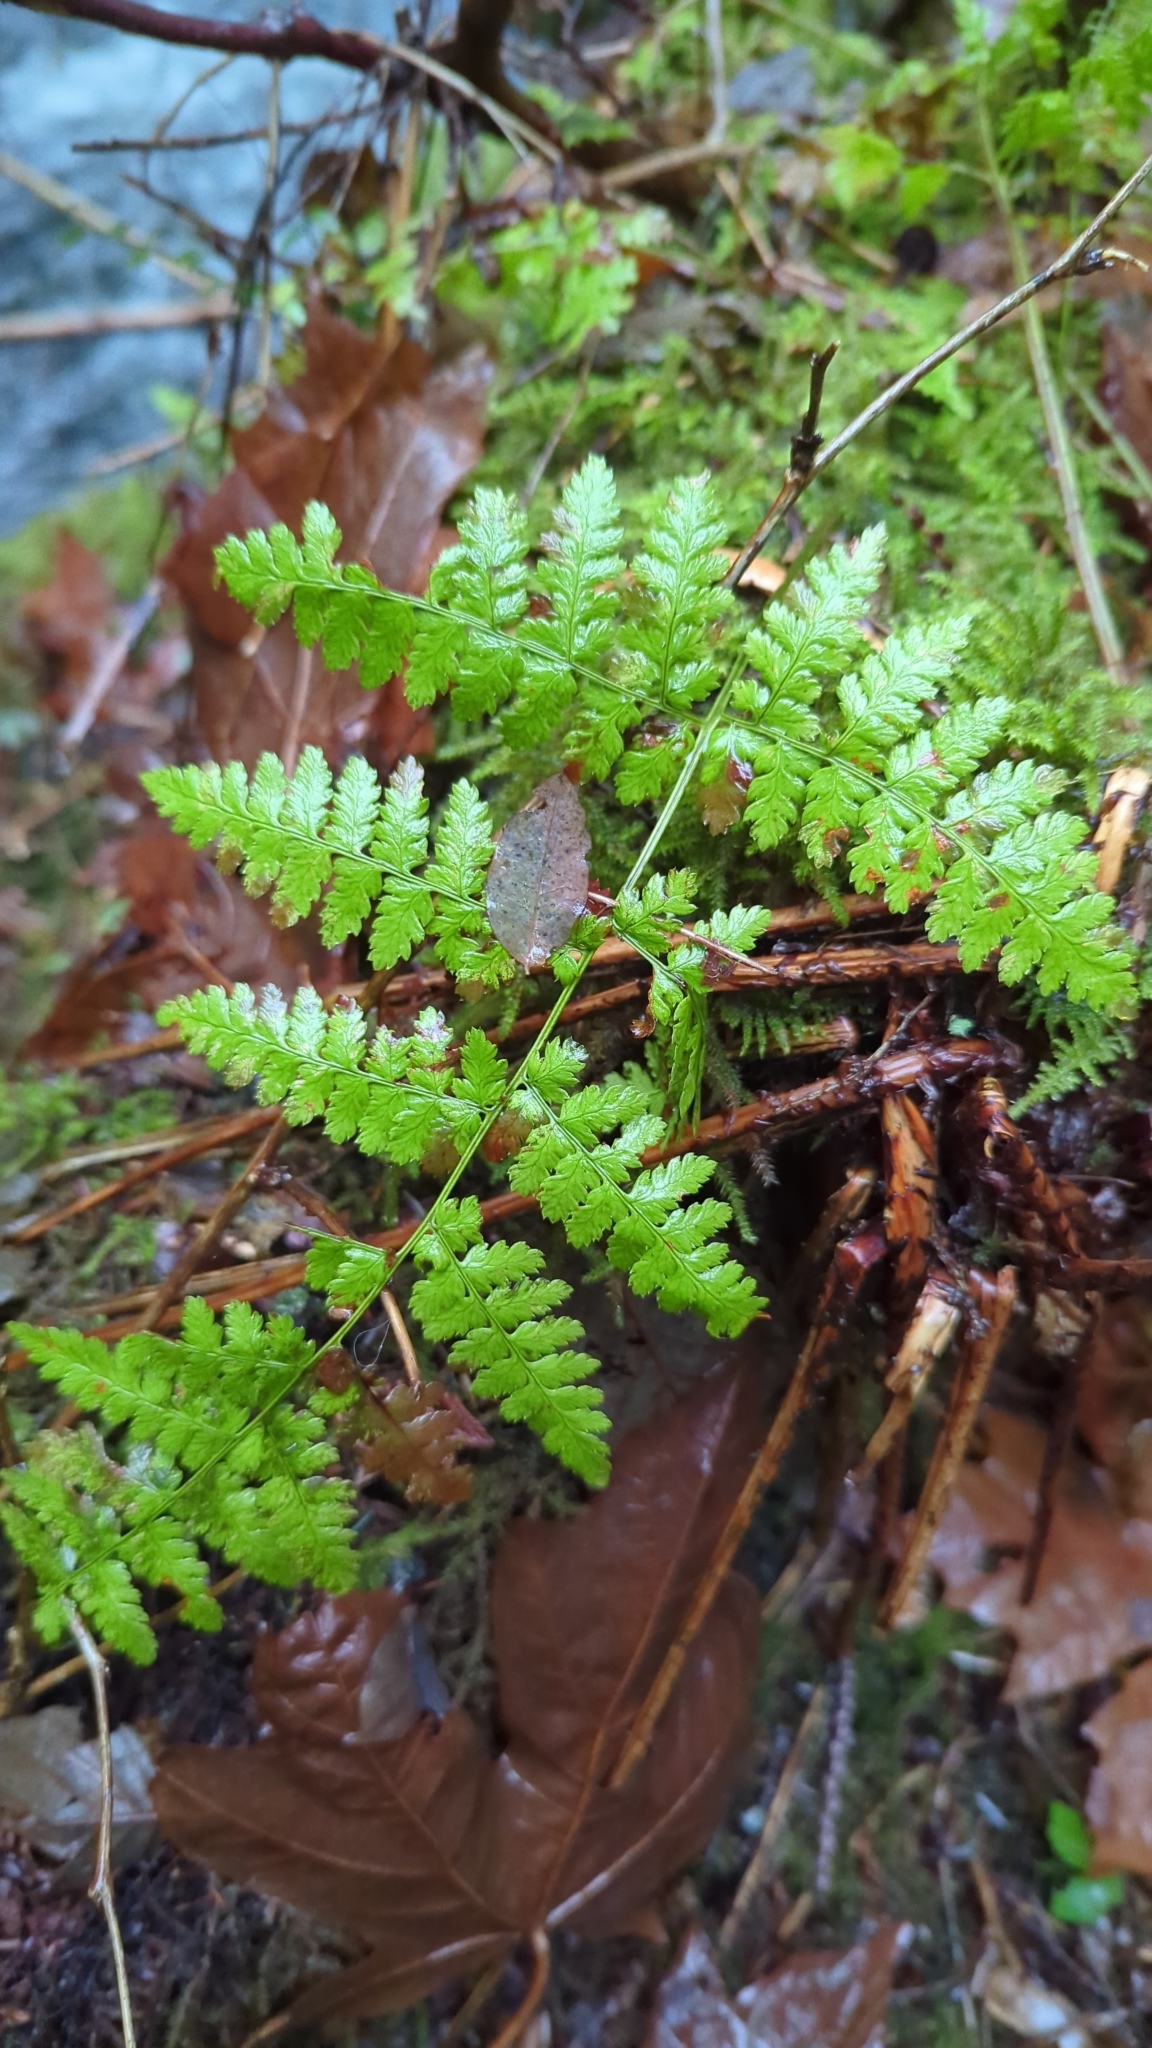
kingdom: Plantae
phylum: Tracheophyta
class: Polypodiopsida
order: Polypodiales
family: Dryopteridaceae
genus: Dryopteris
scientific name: Dryopteris expansa
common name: Northern buckler fern
